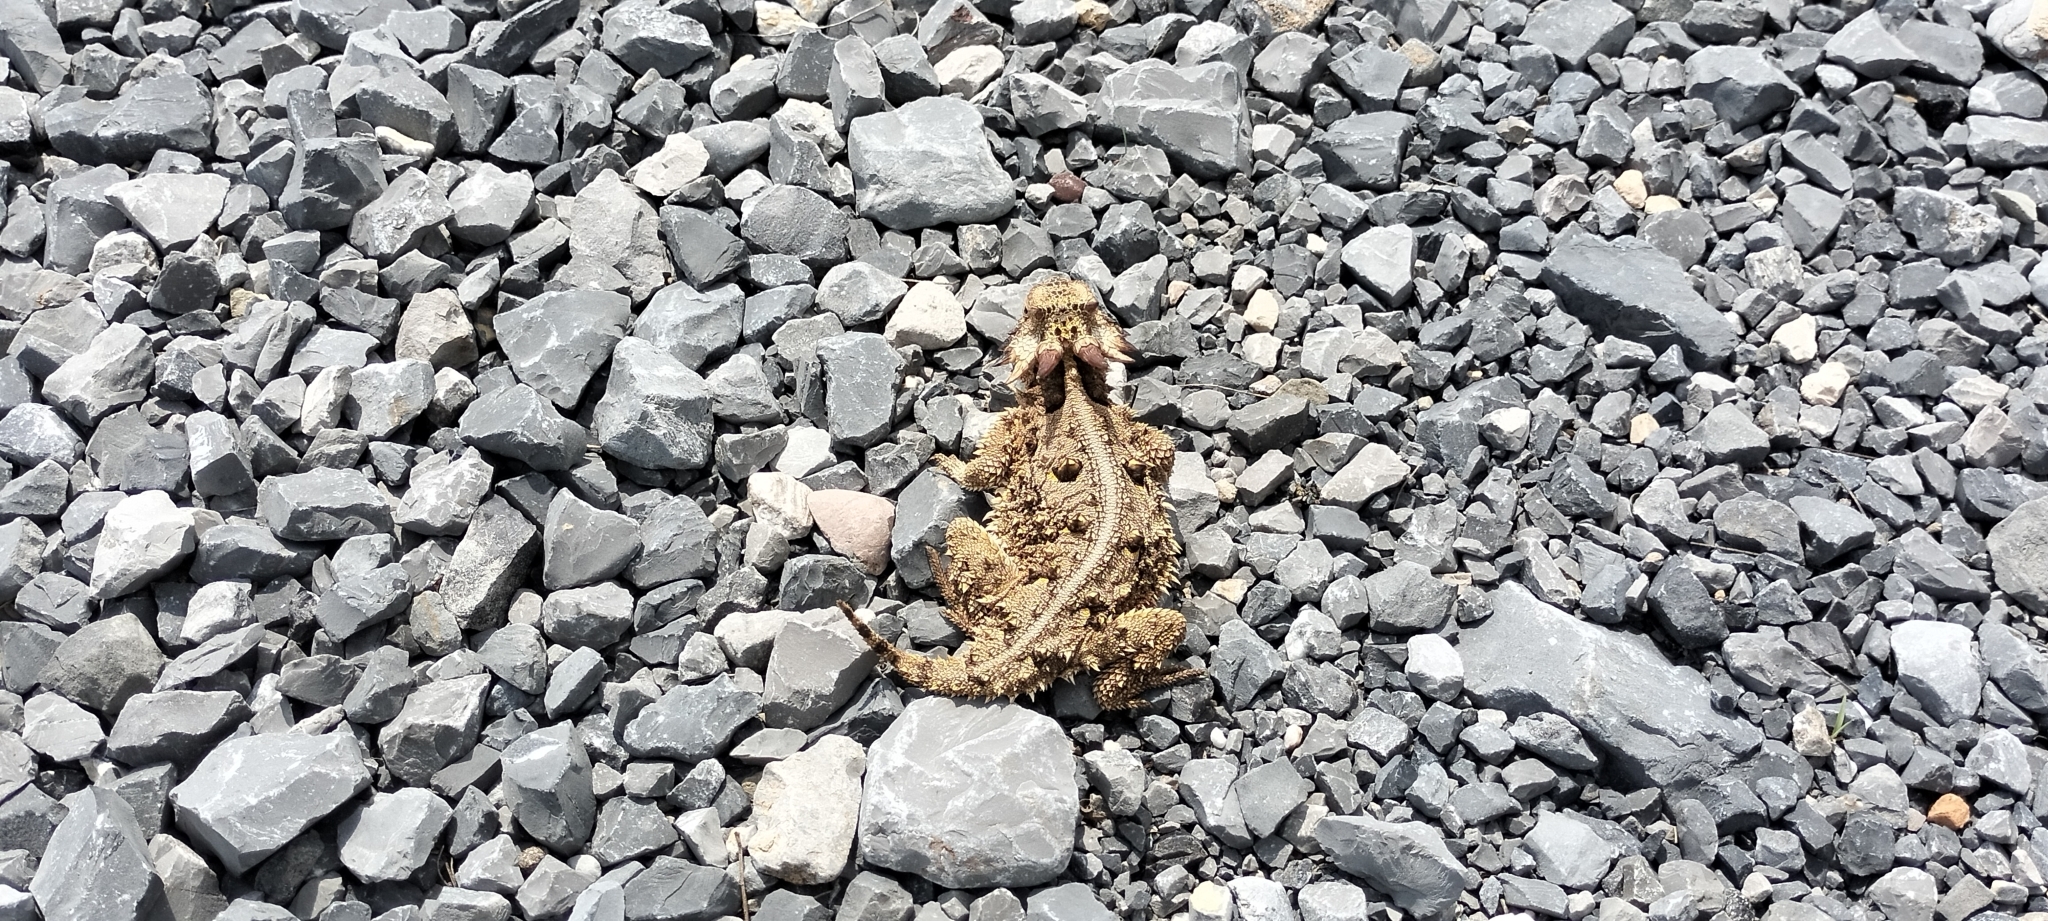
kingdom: Animalia
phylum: Chordata
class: Squamata
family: Phrynosomatidae
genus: Phrynosoma
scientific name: Phrynosoma cornutum
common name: Texas horned lizard
